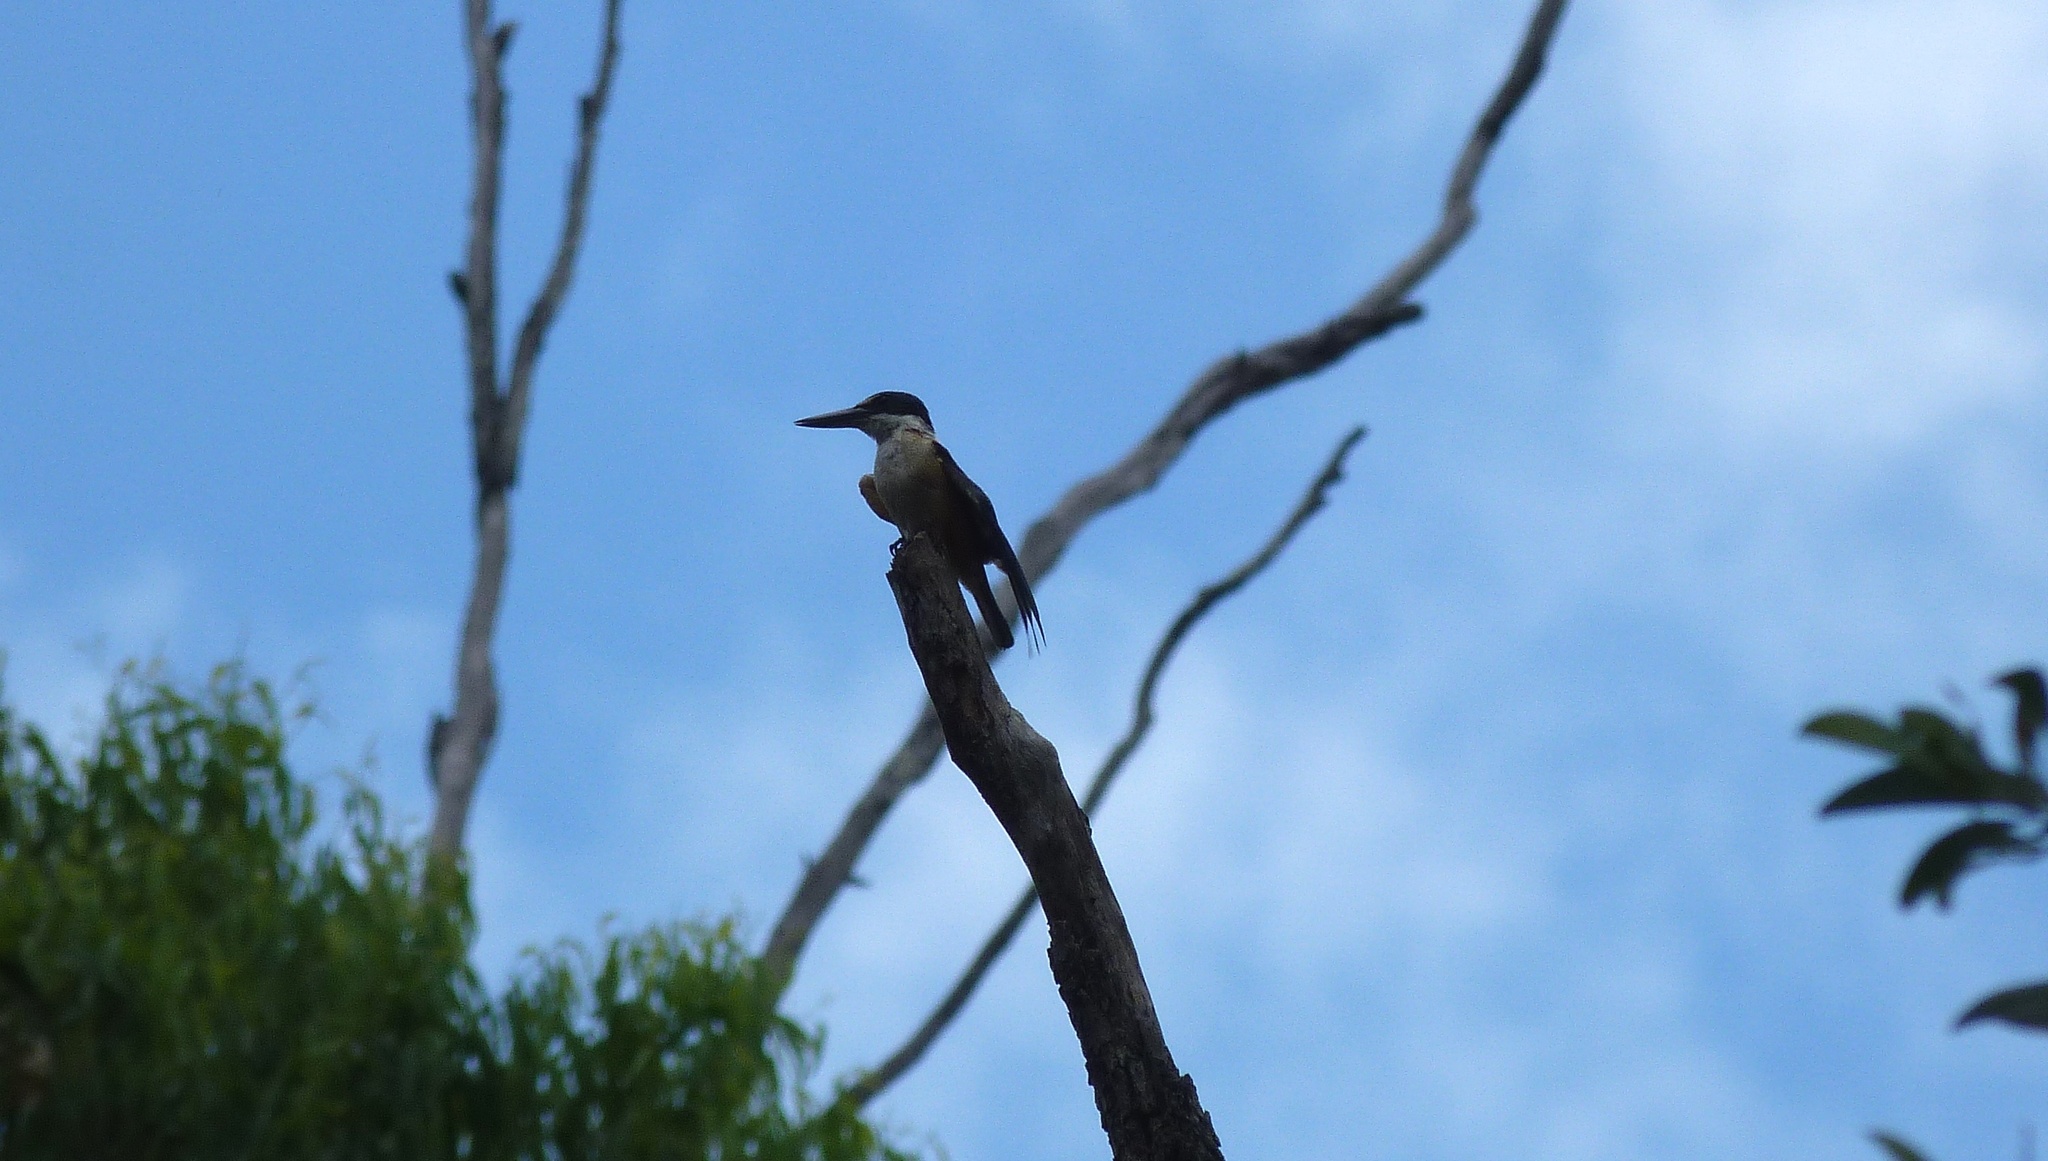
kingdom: Animalia
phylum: Chordata
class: Aves
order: Coraciiformes
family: Alcedinidae
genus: Todiramphus
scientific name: Todiramphus sanctus
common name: Sacred kingfisher
